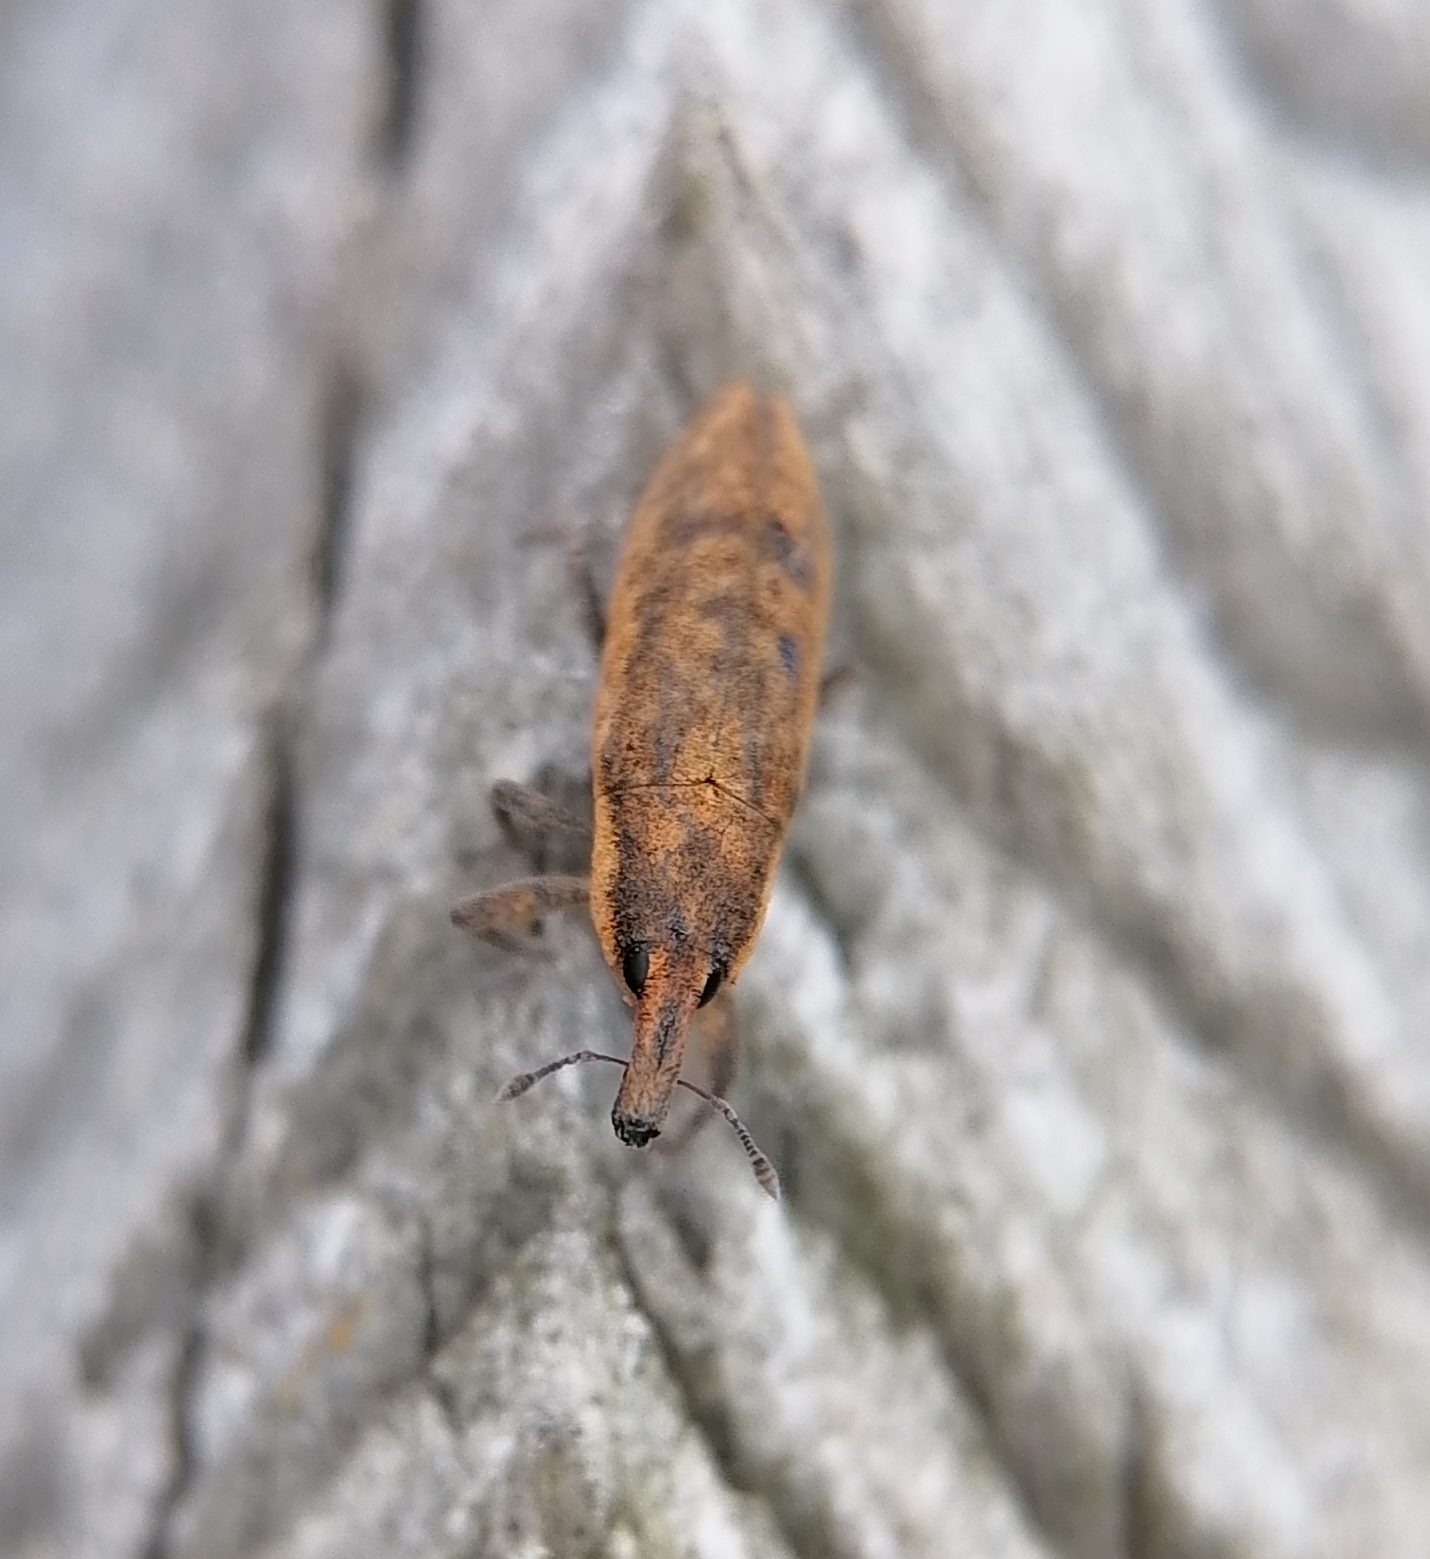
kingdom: Animalia
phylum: Arthropoda
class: Insecta
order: Coleoptera
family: Curculionidae
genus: Lixus
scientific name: Lixus subtilis
